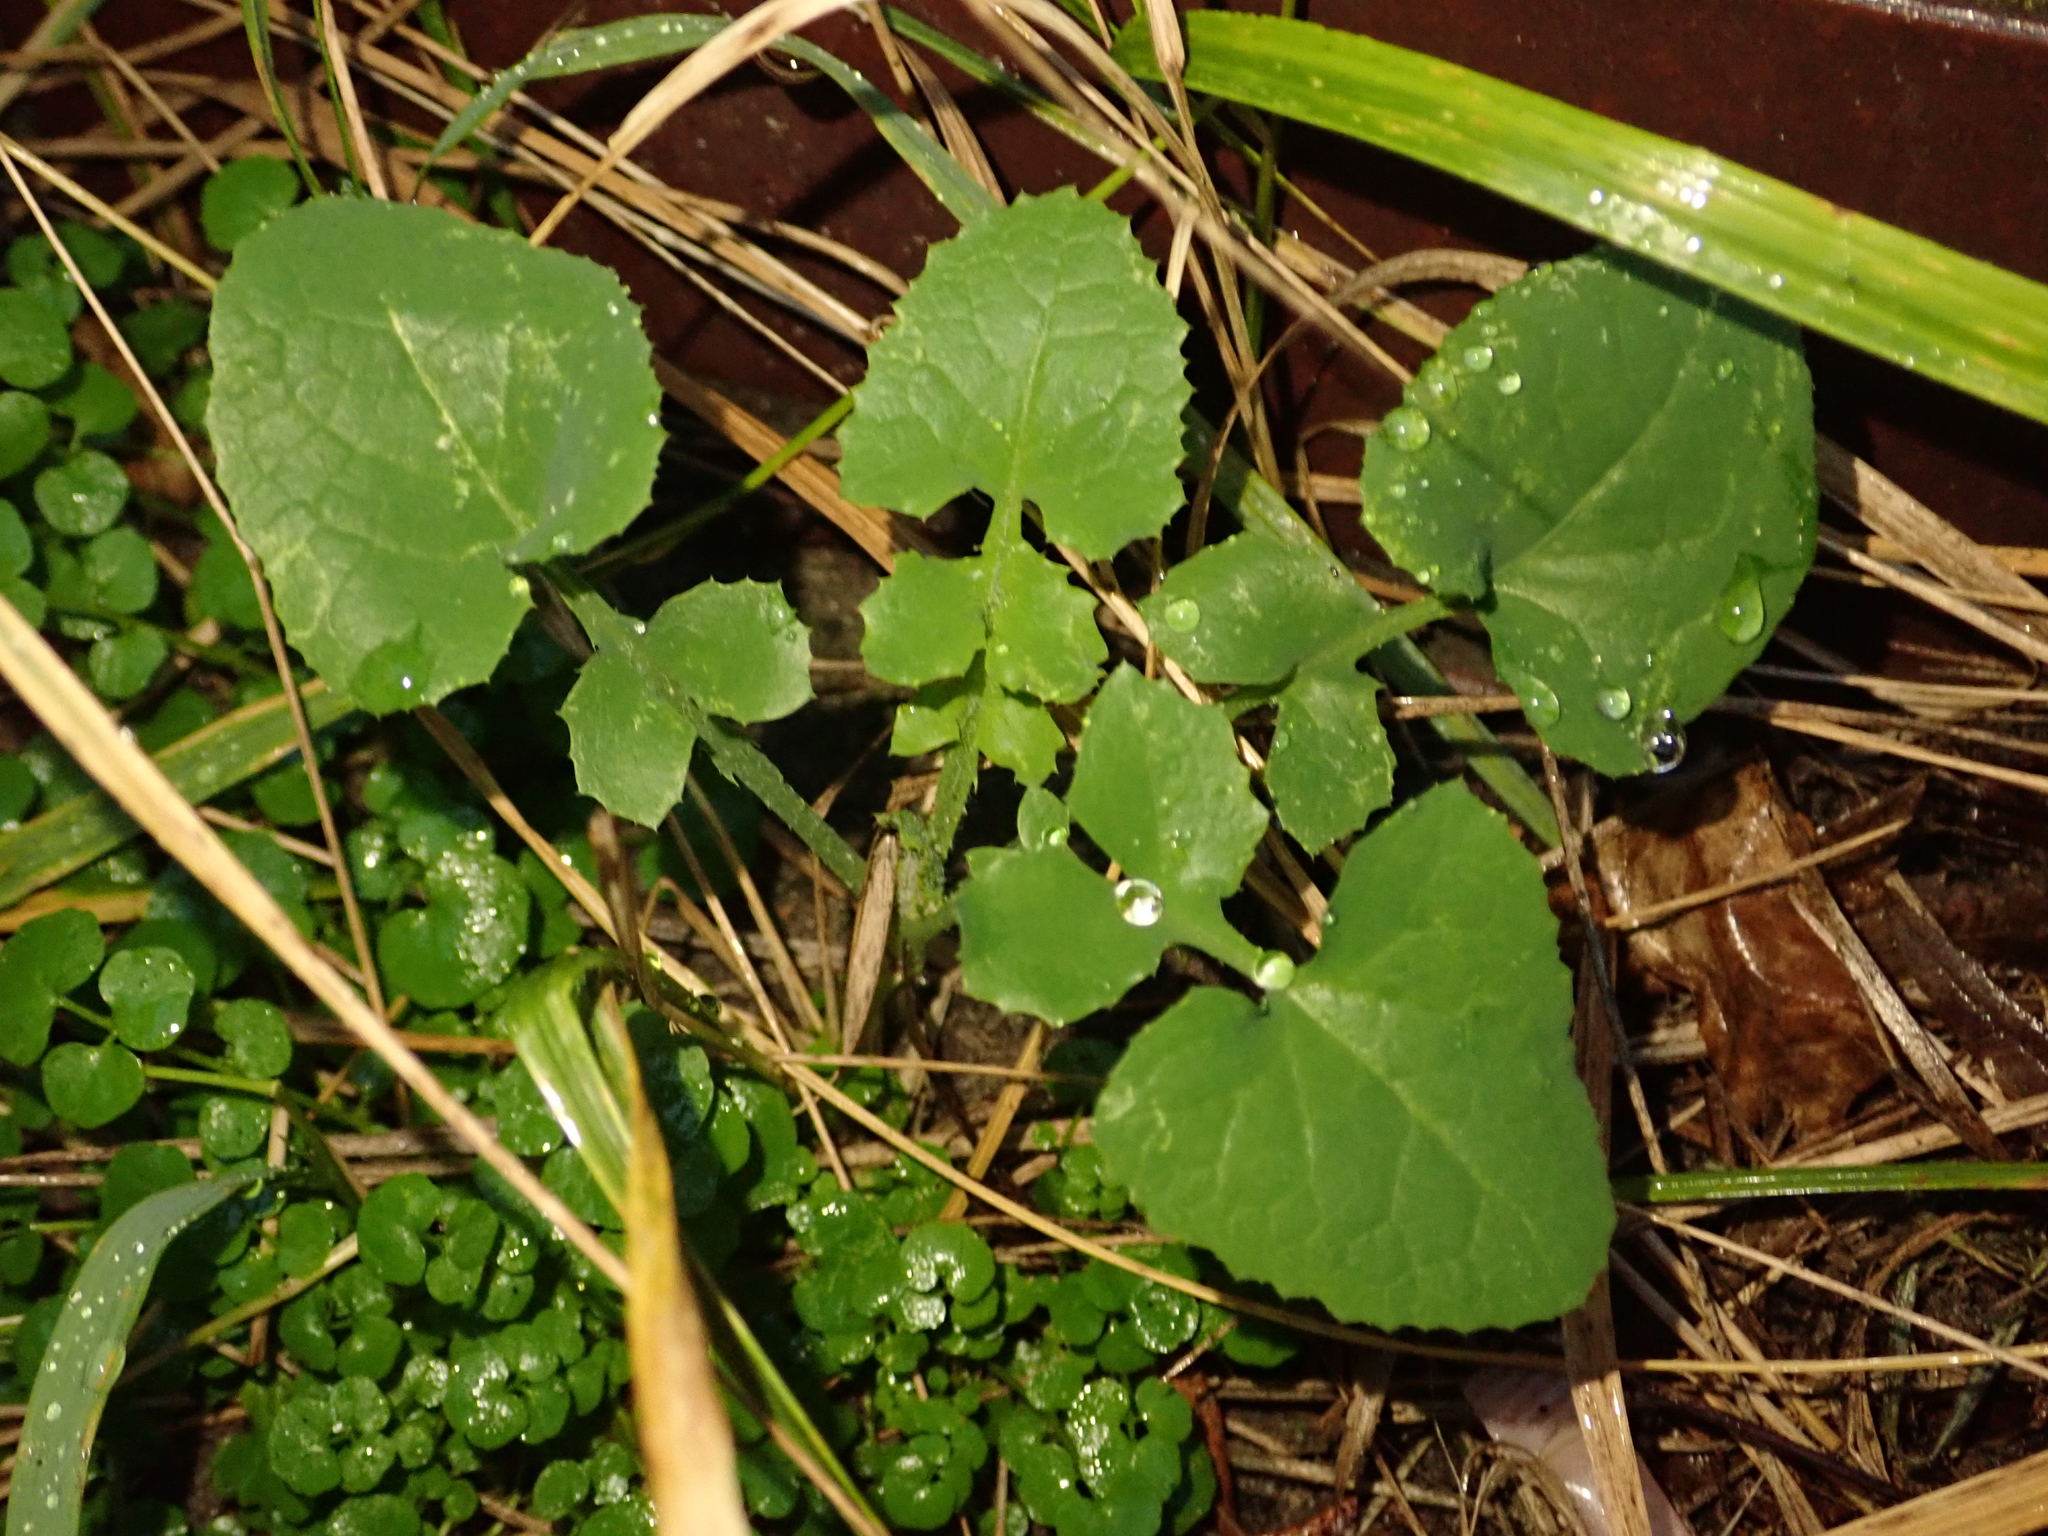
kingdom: Plantae
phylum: Tracheophyta
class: Magnoliopsida
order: Asterales
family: Asteraceae
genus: Sonchus
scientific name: Sonchus oleraceus
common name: Common sowthistle
